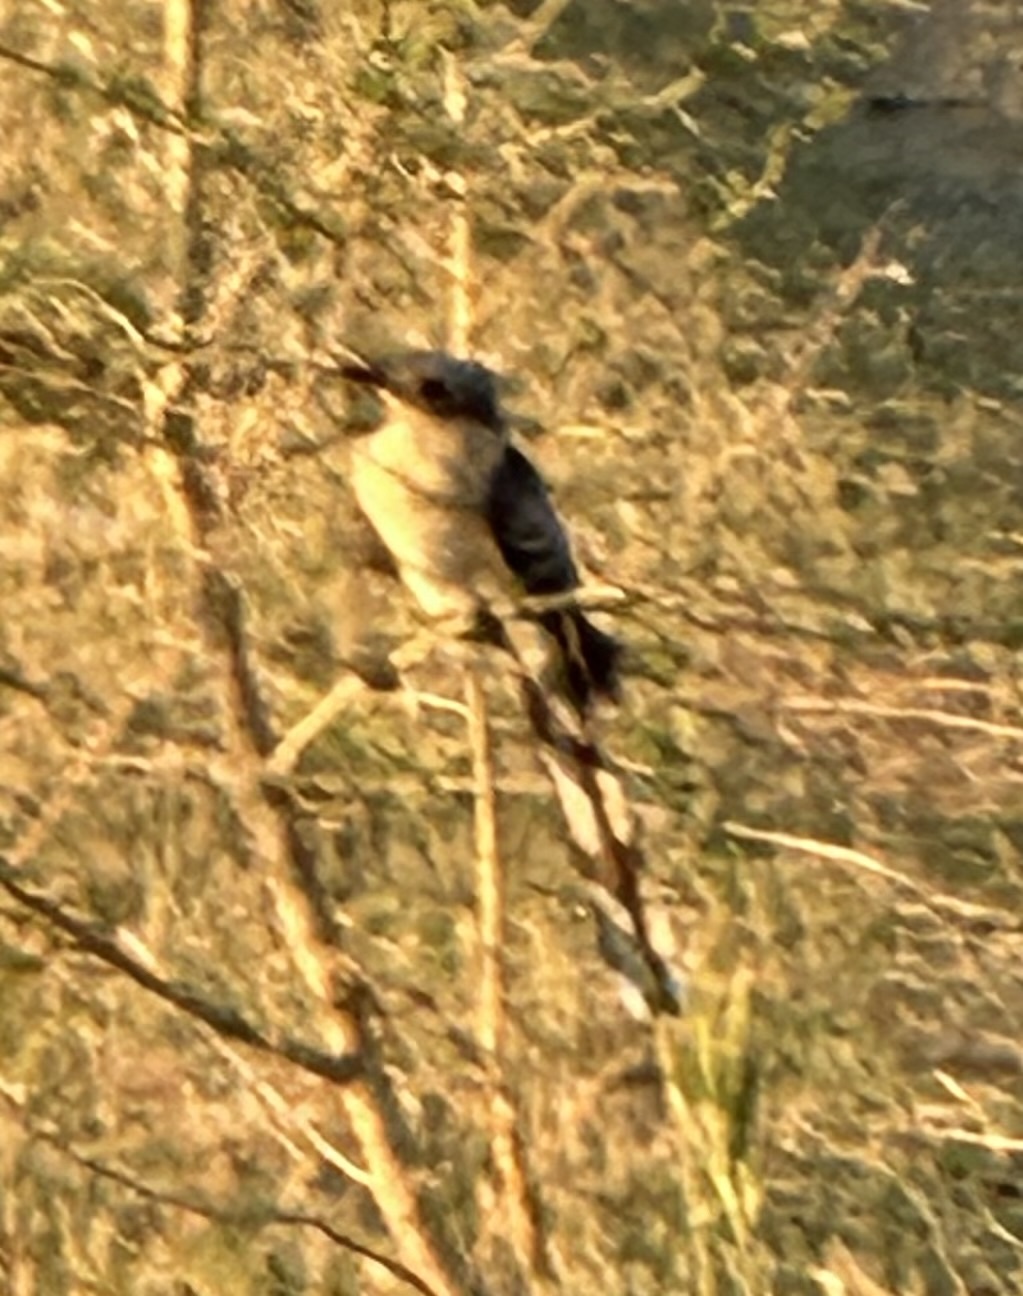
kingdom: Animalia
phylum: Chordata
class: Aves
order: Cuculiformes
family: Cuculidae
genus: Clamator
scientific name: Clamator glandarius
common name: Great spotted cuckoo
